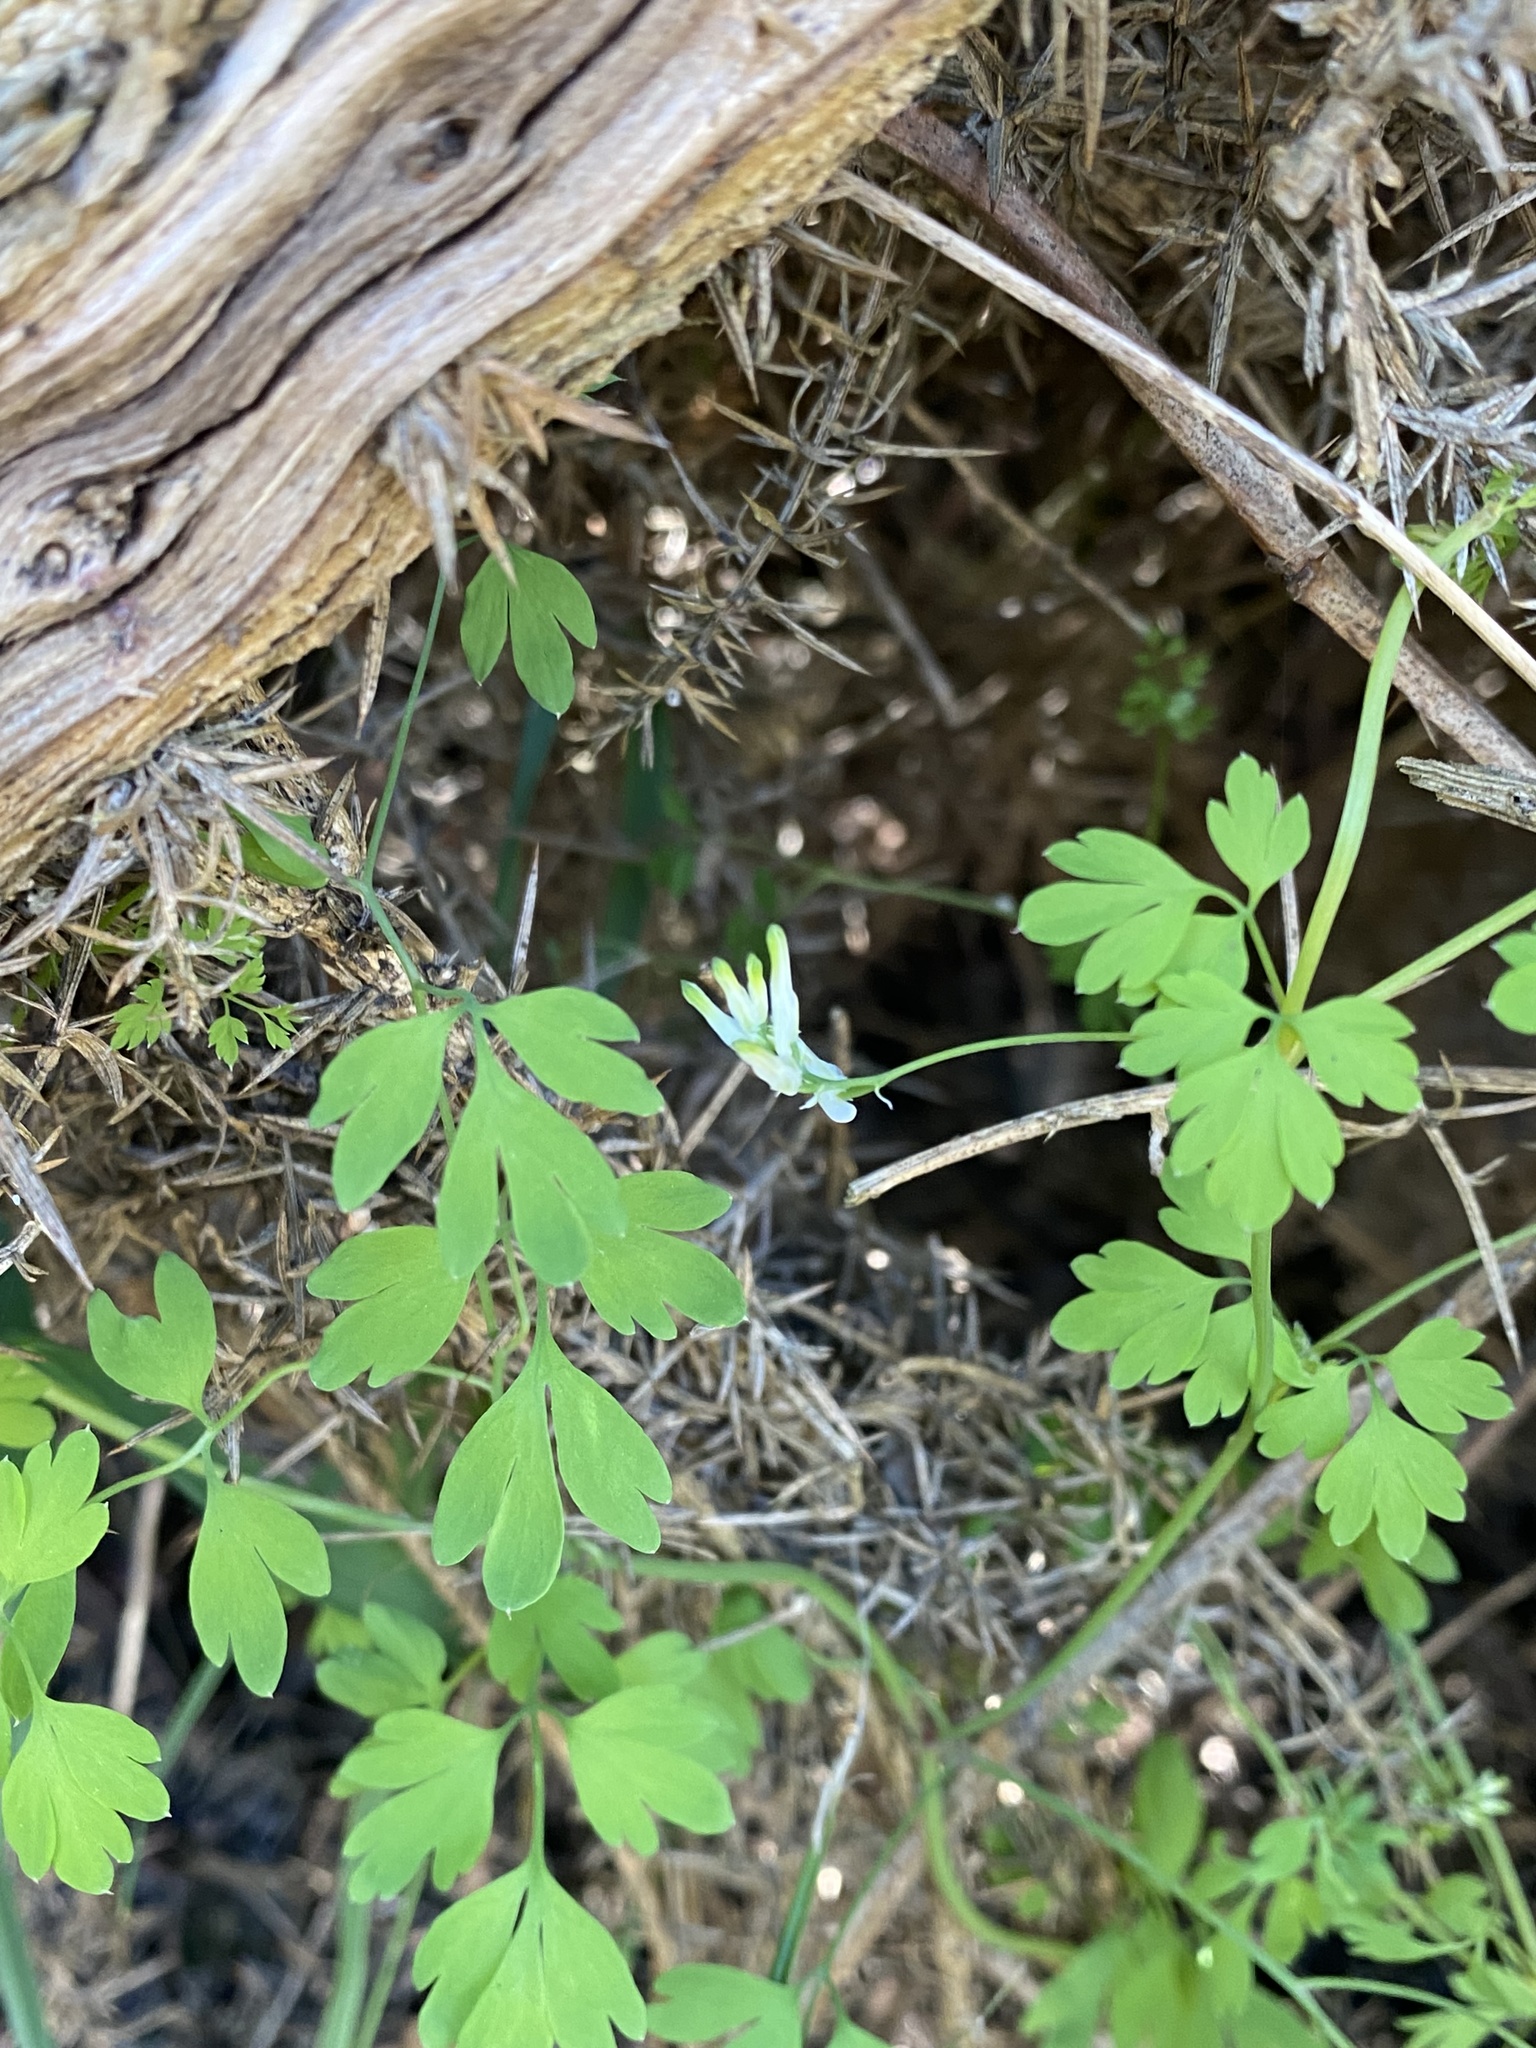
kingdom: Plantae
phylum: Tracheophyta
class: Magnoliopsida
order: Ranunculales
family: Papaveraceae
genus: Fumaria
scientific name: Fumaria capreolata
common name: White ramping-fumitory
